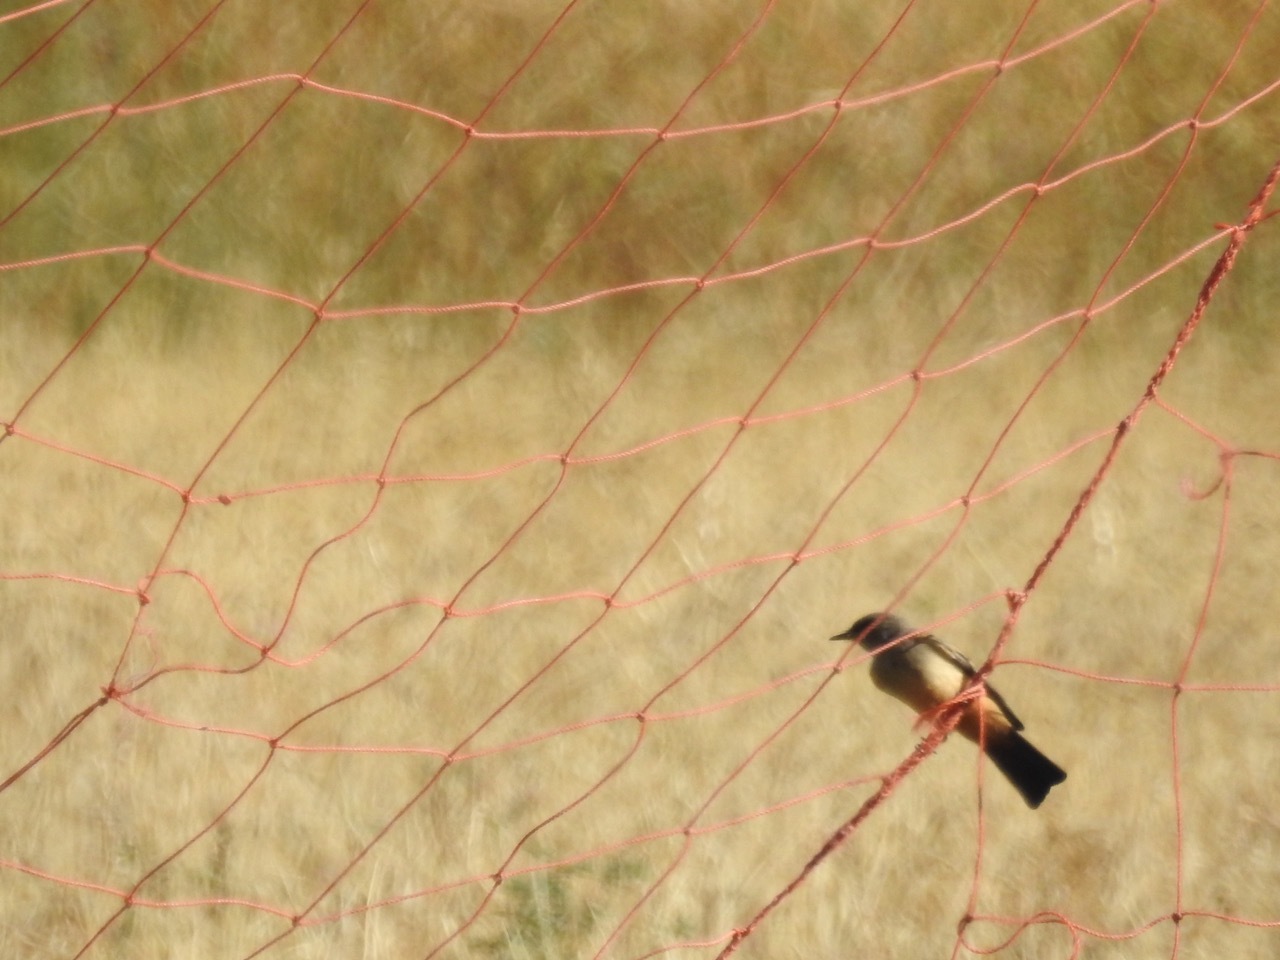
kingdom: Animalia
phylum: Chordata
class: Aves
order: Passeriformes
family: Tyrannidae
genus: Sayornis
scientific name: Sayornis saya
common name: Say's phoebe
